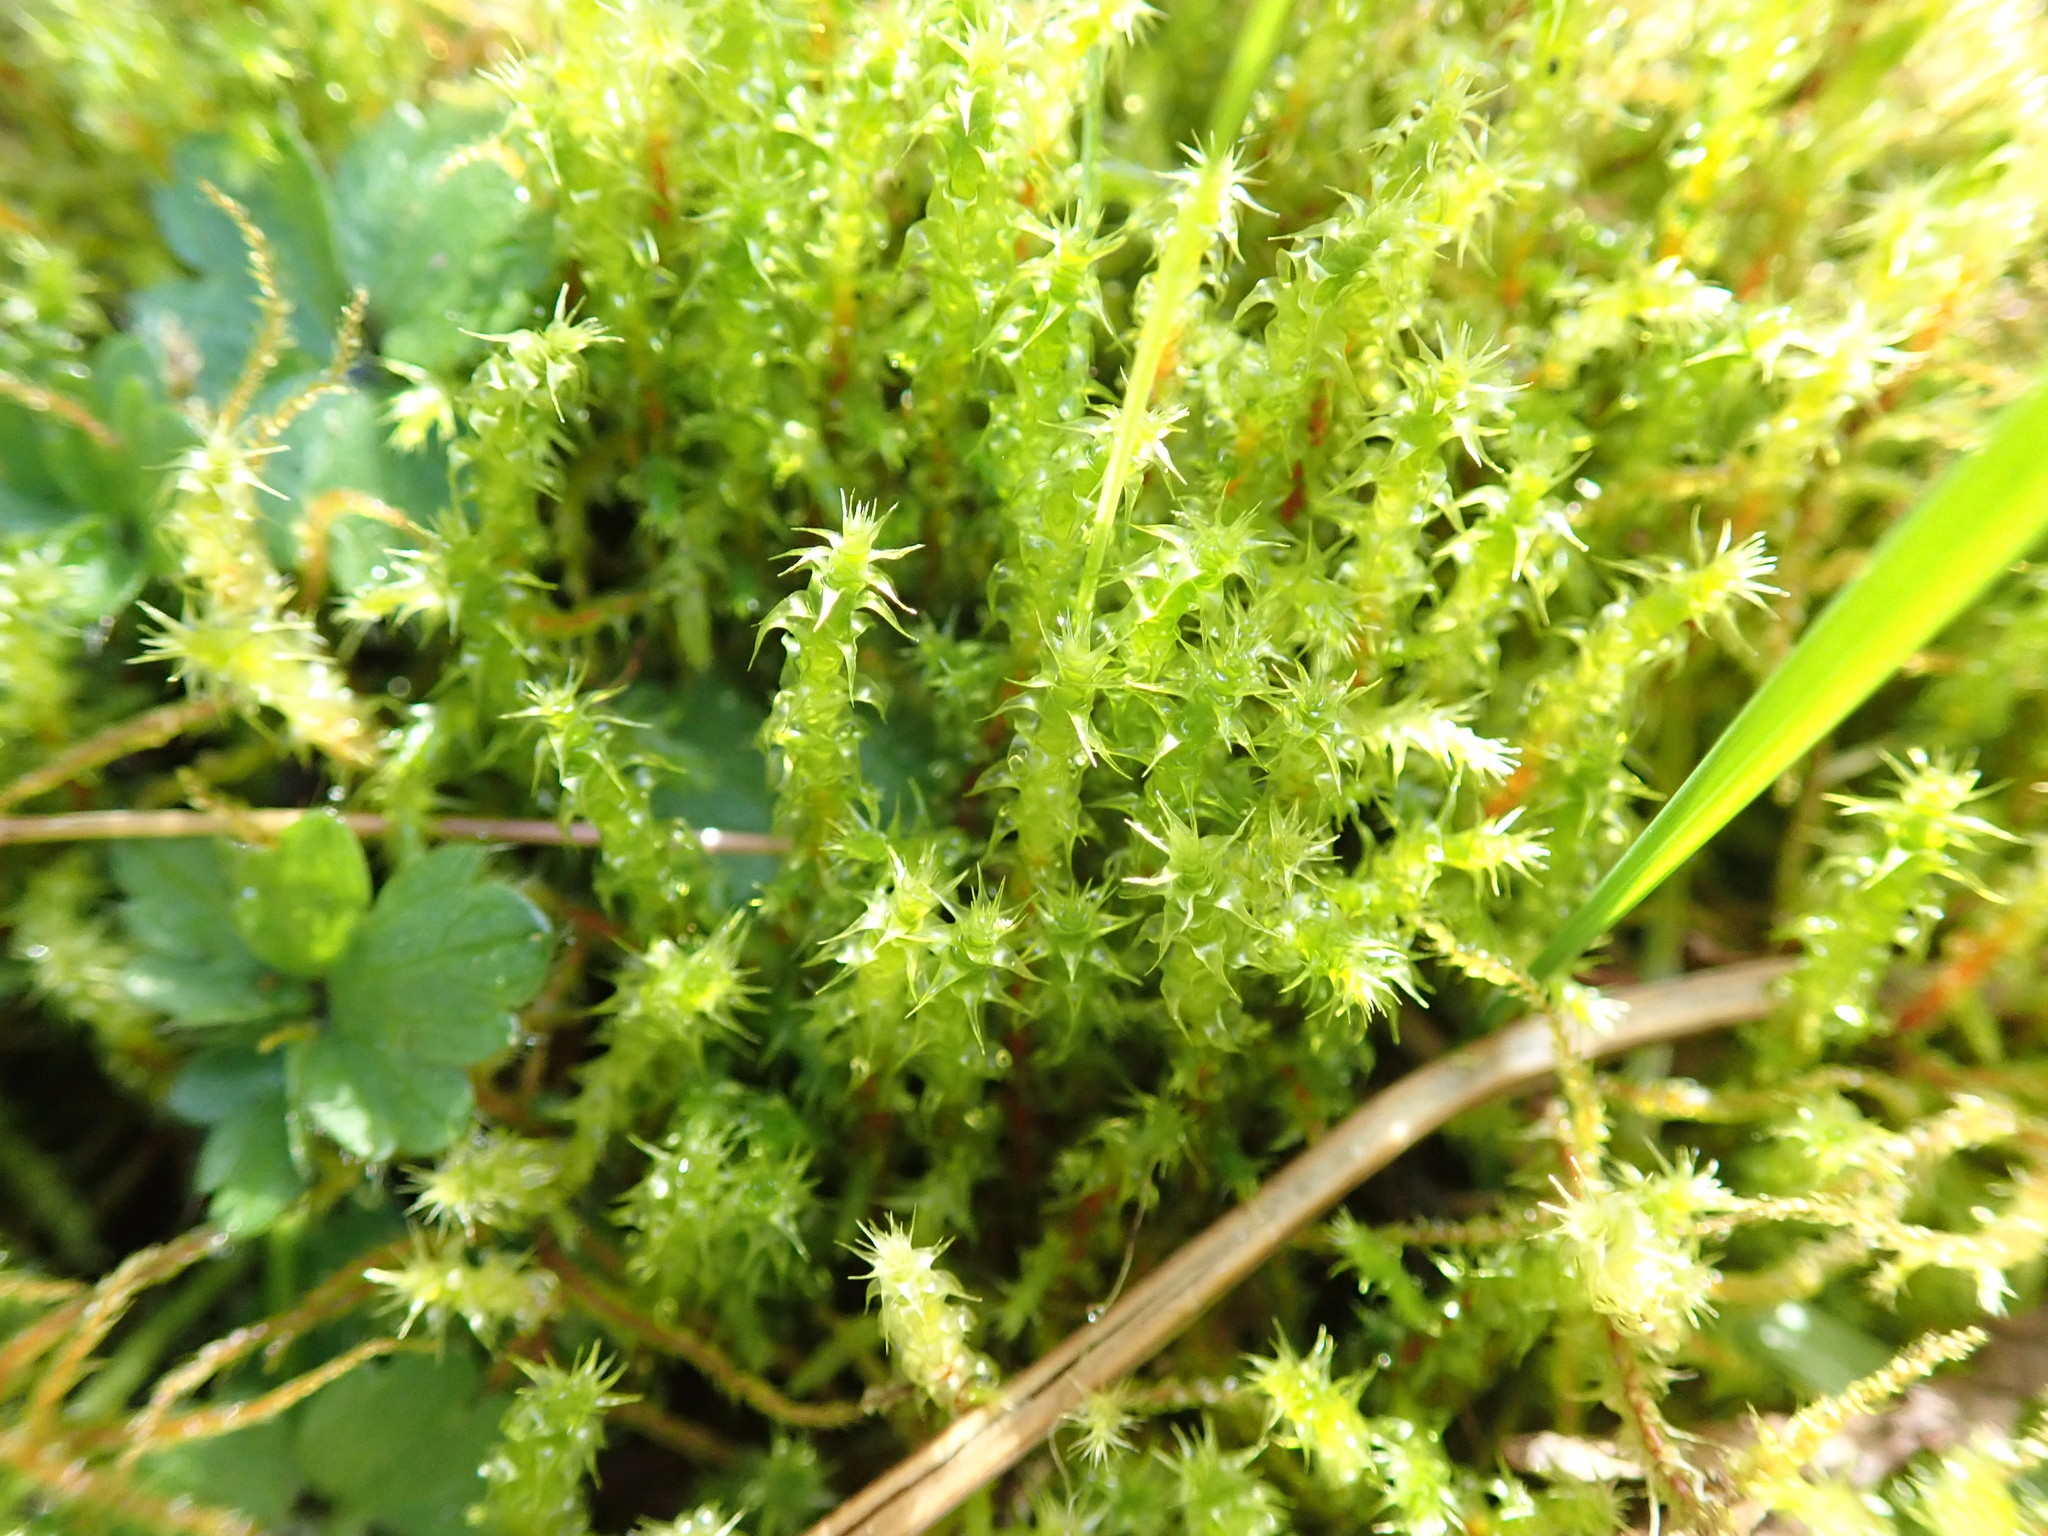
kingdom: Plantae
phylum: Bryophyta
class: Bryopsida
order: Hypnales
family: Hylocomiaceae
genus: Rhytidiadelphus
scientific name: Rhytidiadelphus squarrosus
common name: Springy turf-moss
